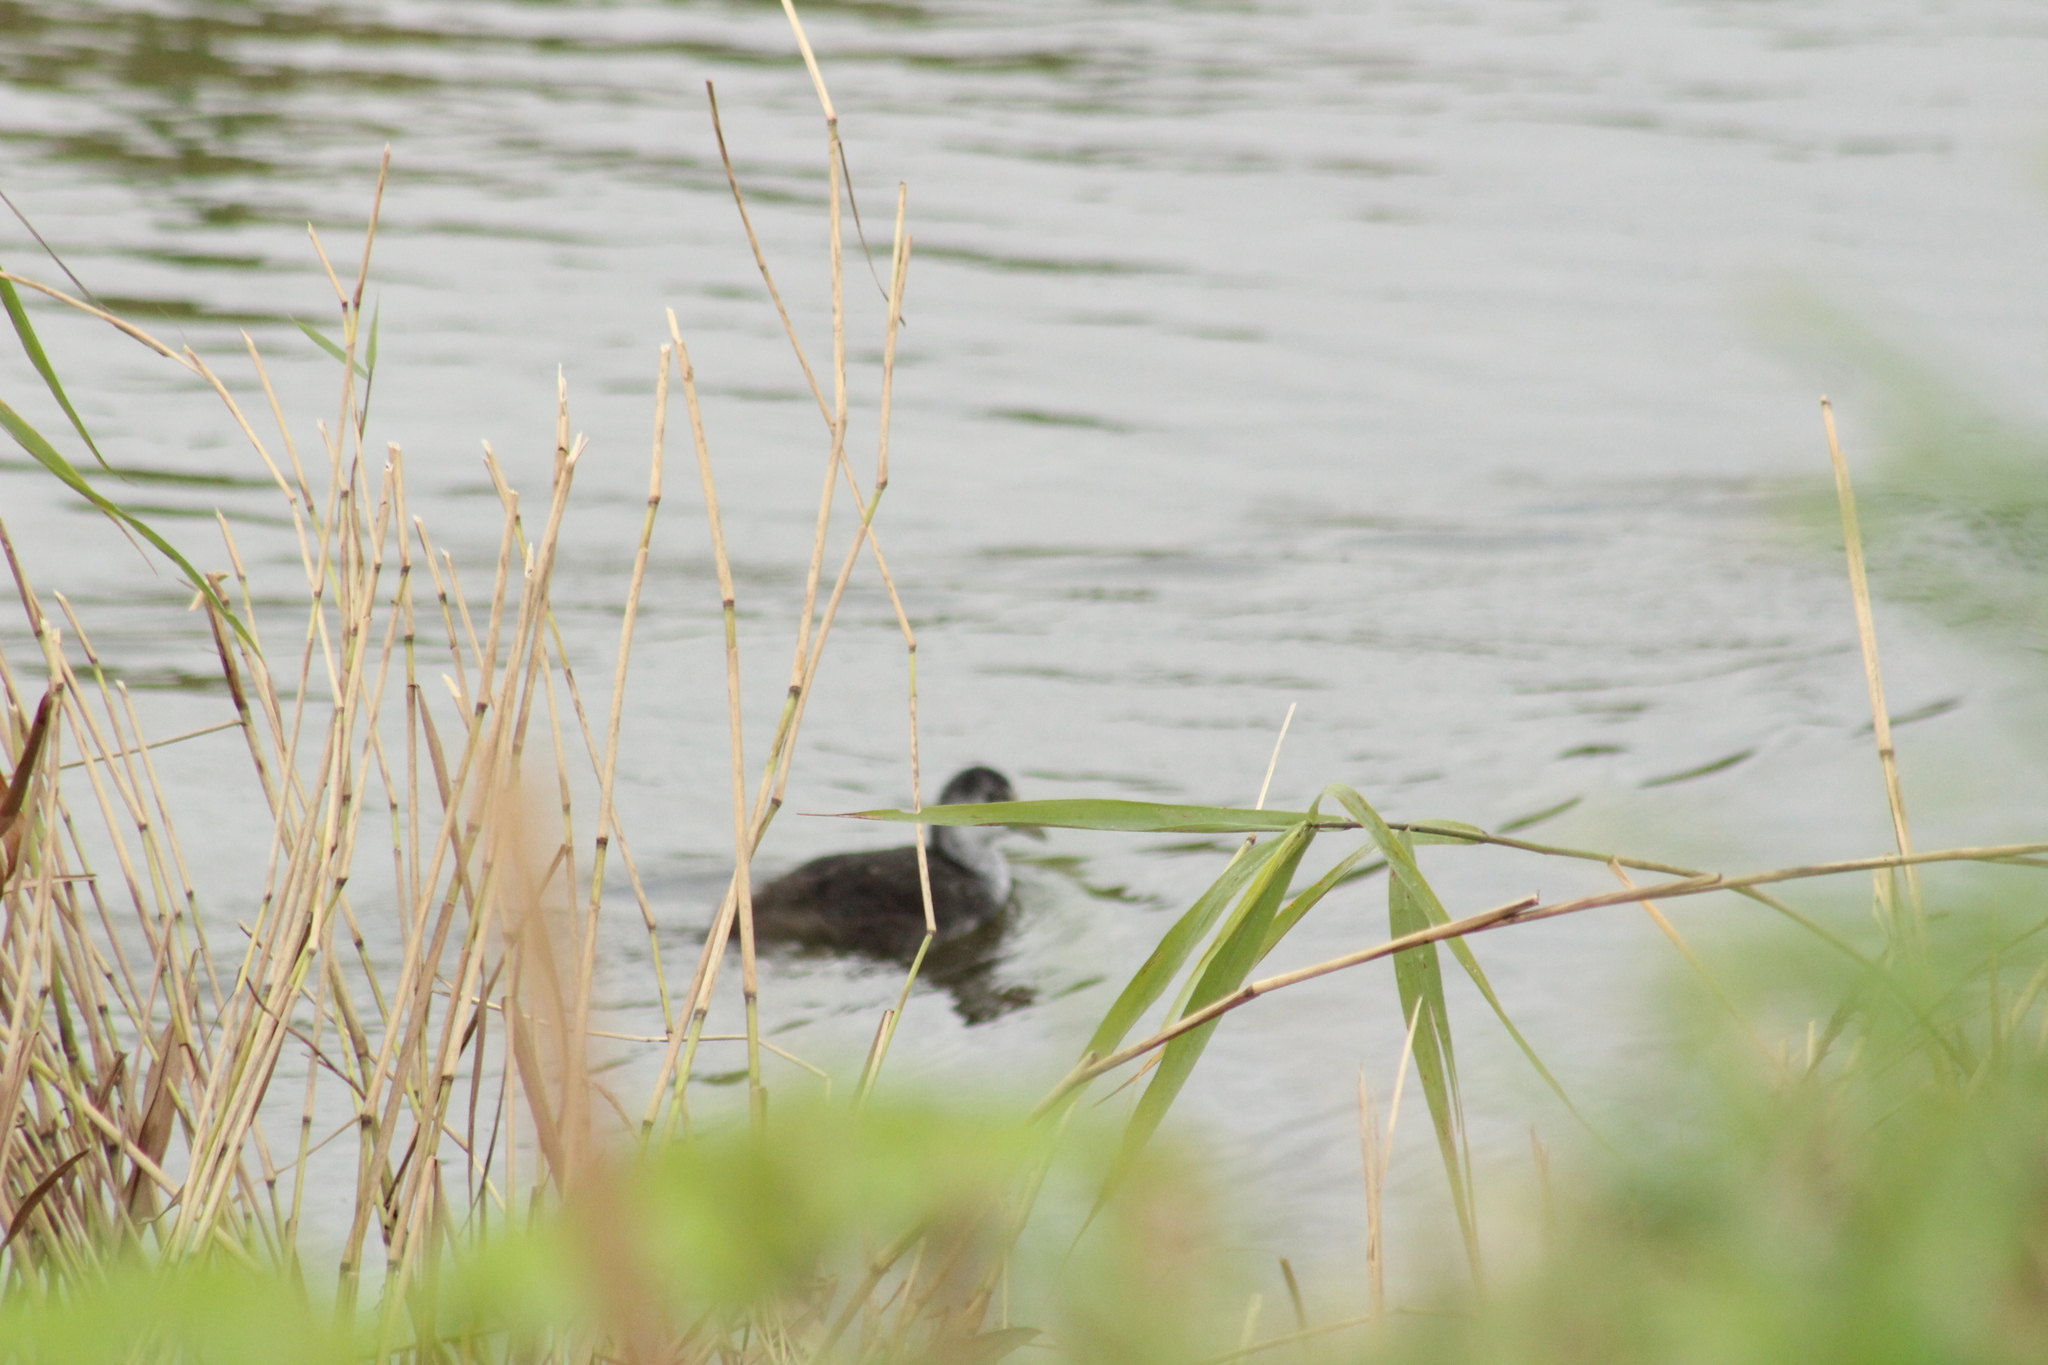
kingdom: Animalia
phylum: Chordata
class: Aves
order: Gruiformes
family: Rallidae
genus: Fulica
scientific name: Fulica atra
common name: Eurasian coot
